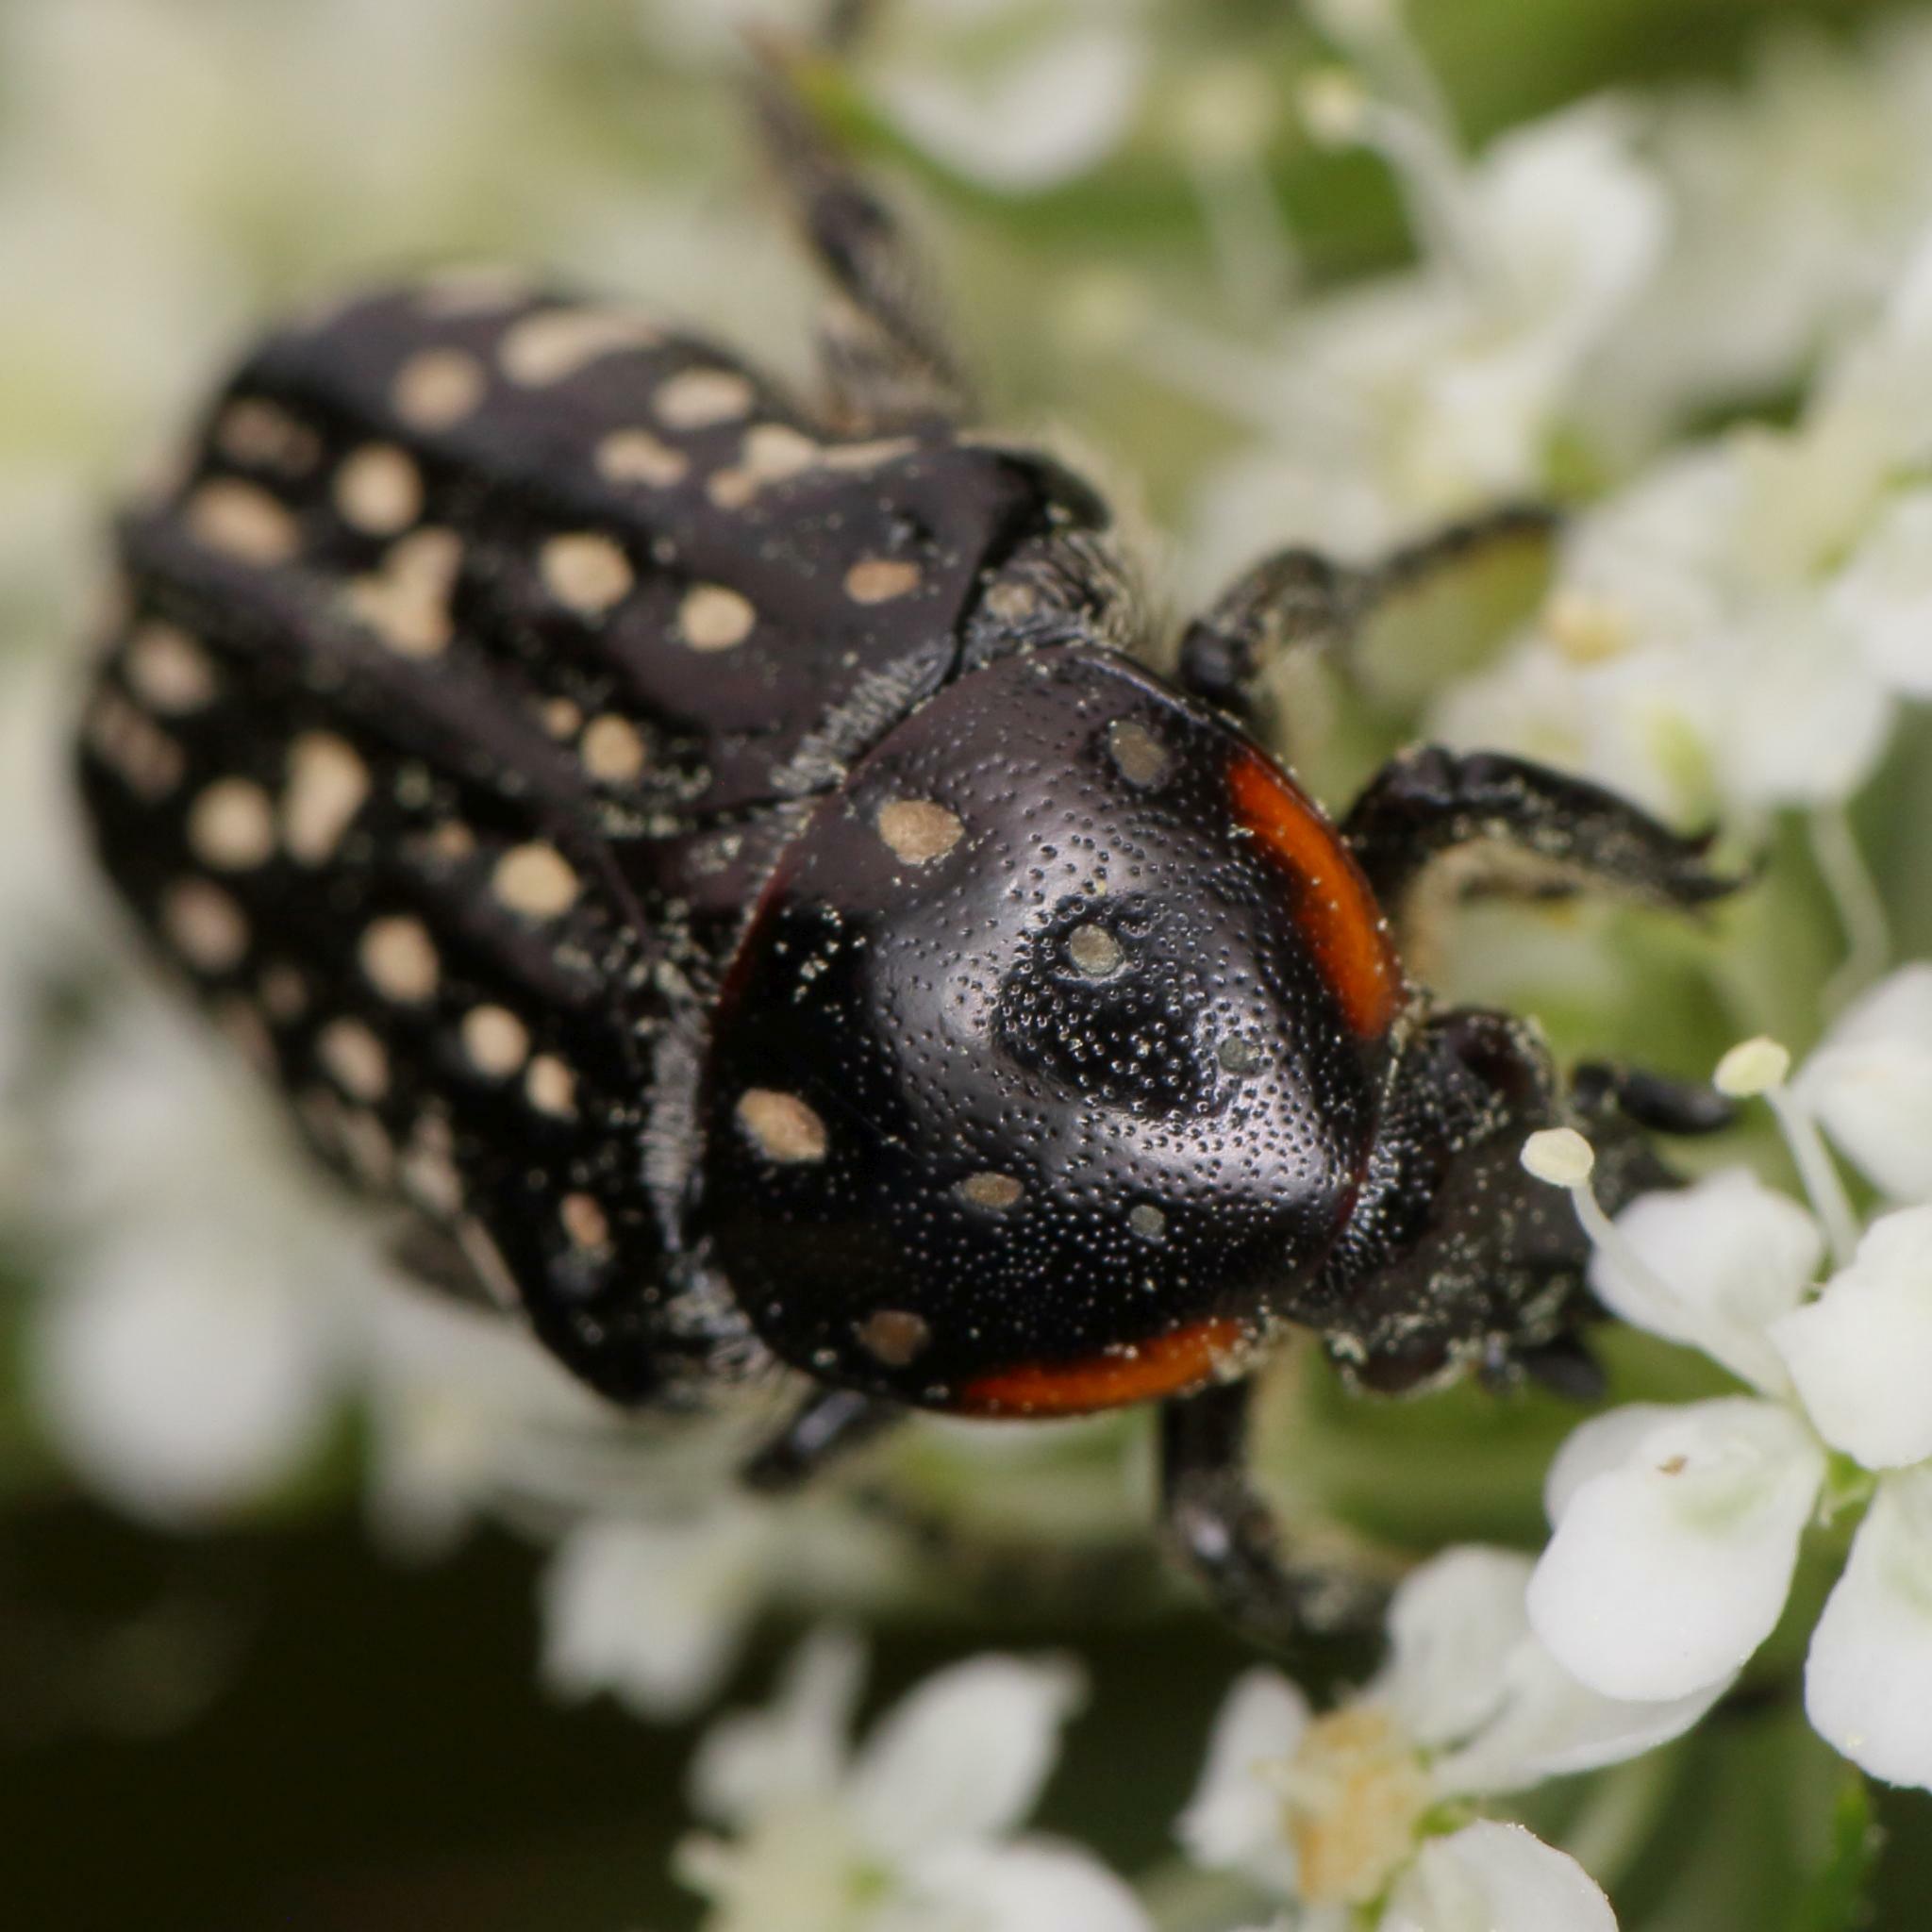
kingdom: Animalia
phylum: Arthropoda
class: Insecta
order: Coleoptera
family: Scarabaeidae
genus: Oxythyrea
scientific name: Oxythyrea
